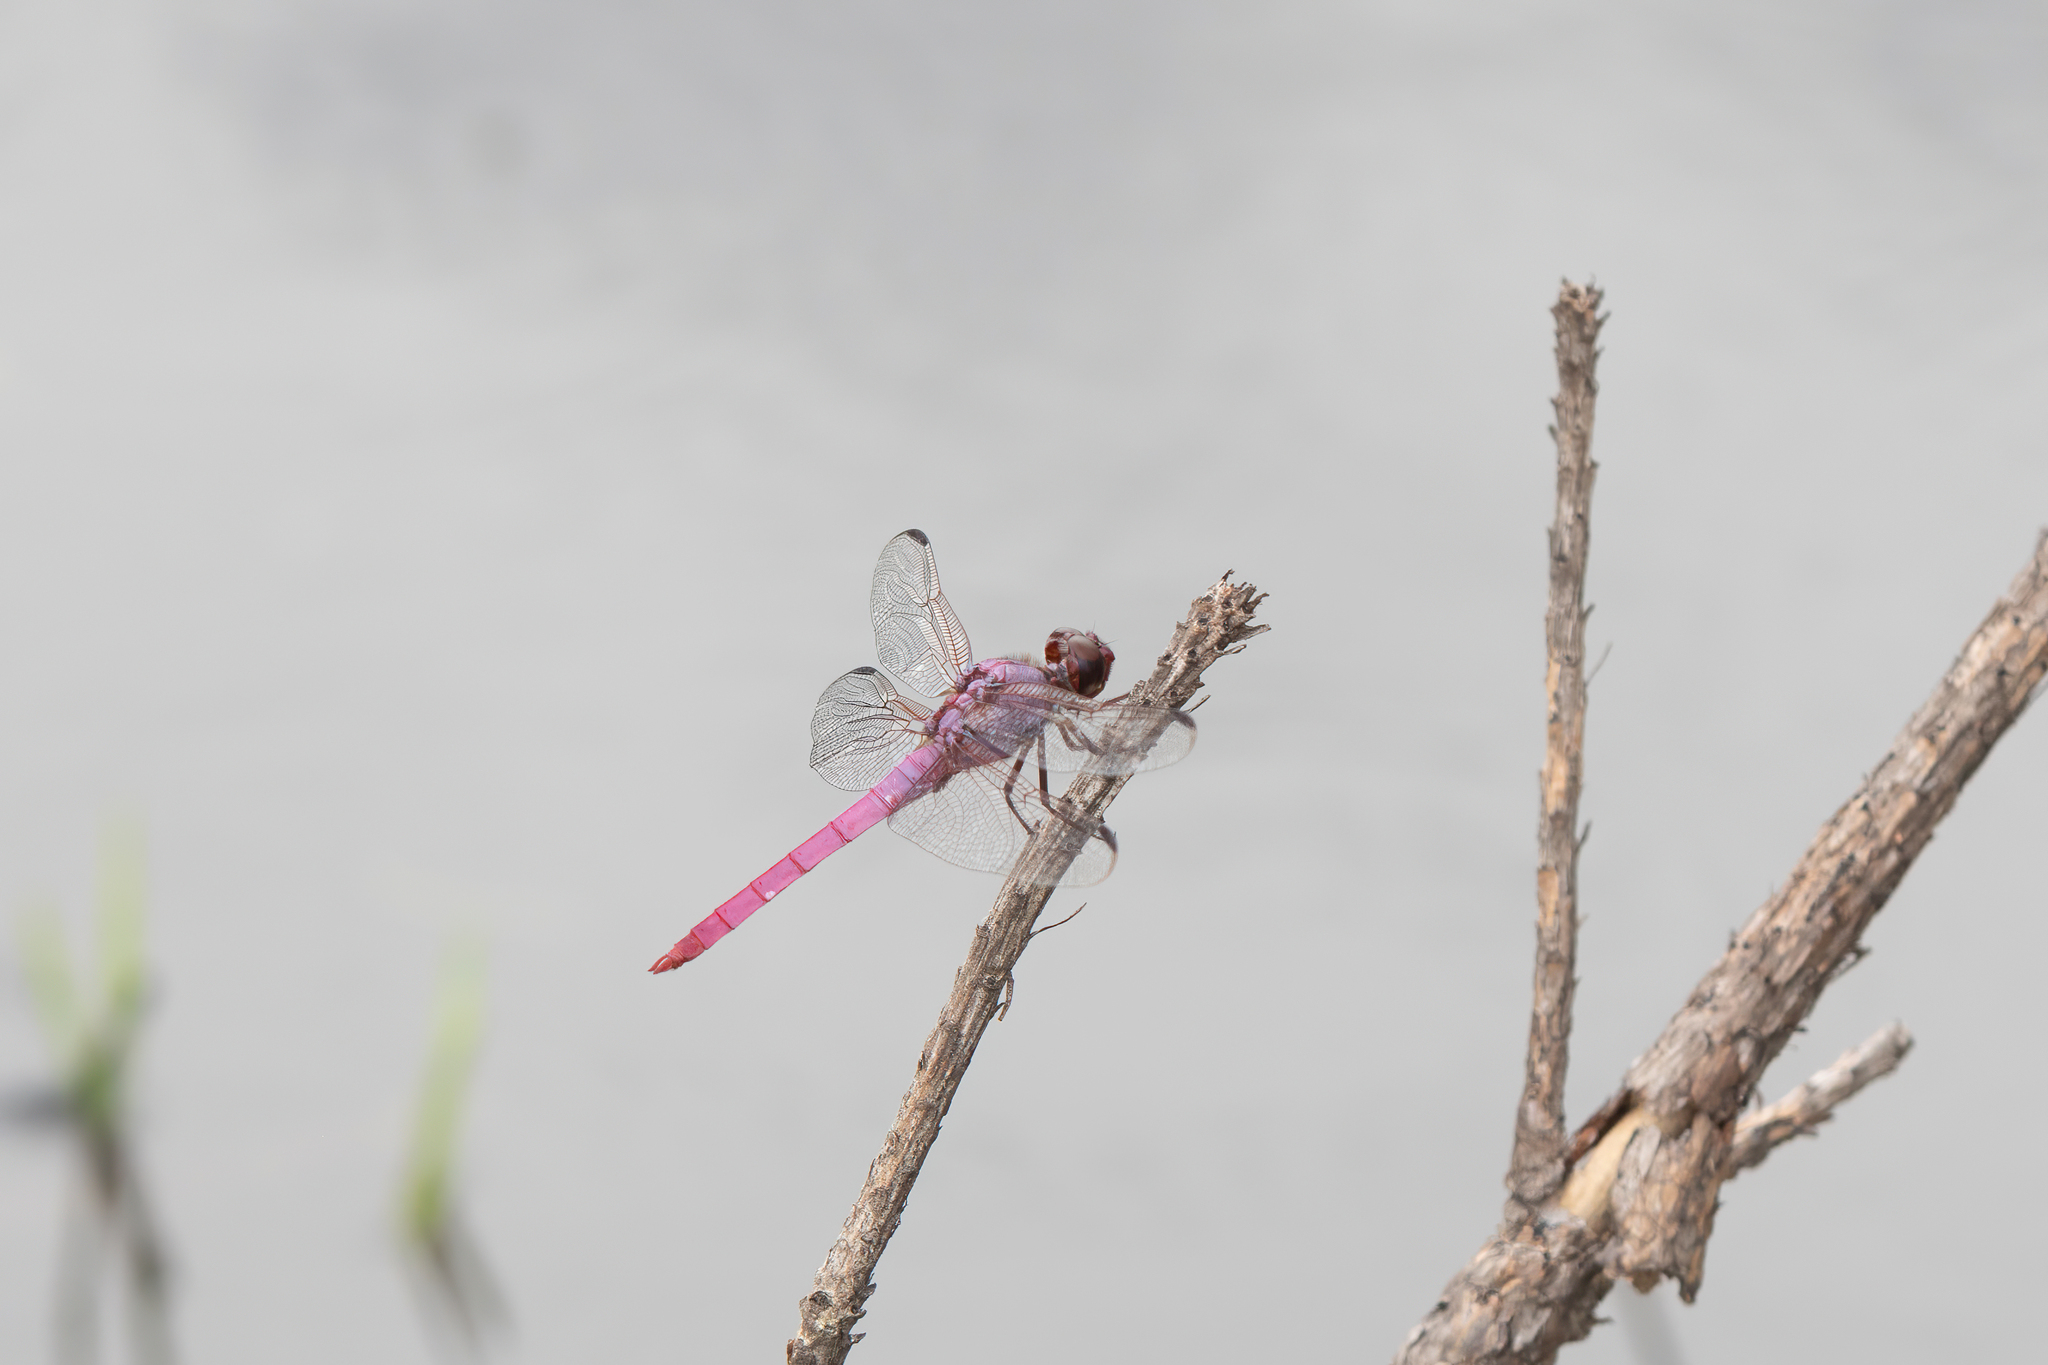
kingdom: Animalia
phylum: Arthropoda
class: Insecta
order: Odonata
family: Libellulidae
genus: Orthemis
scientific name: Orthemis ferruginea
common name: Roseate skimmer
